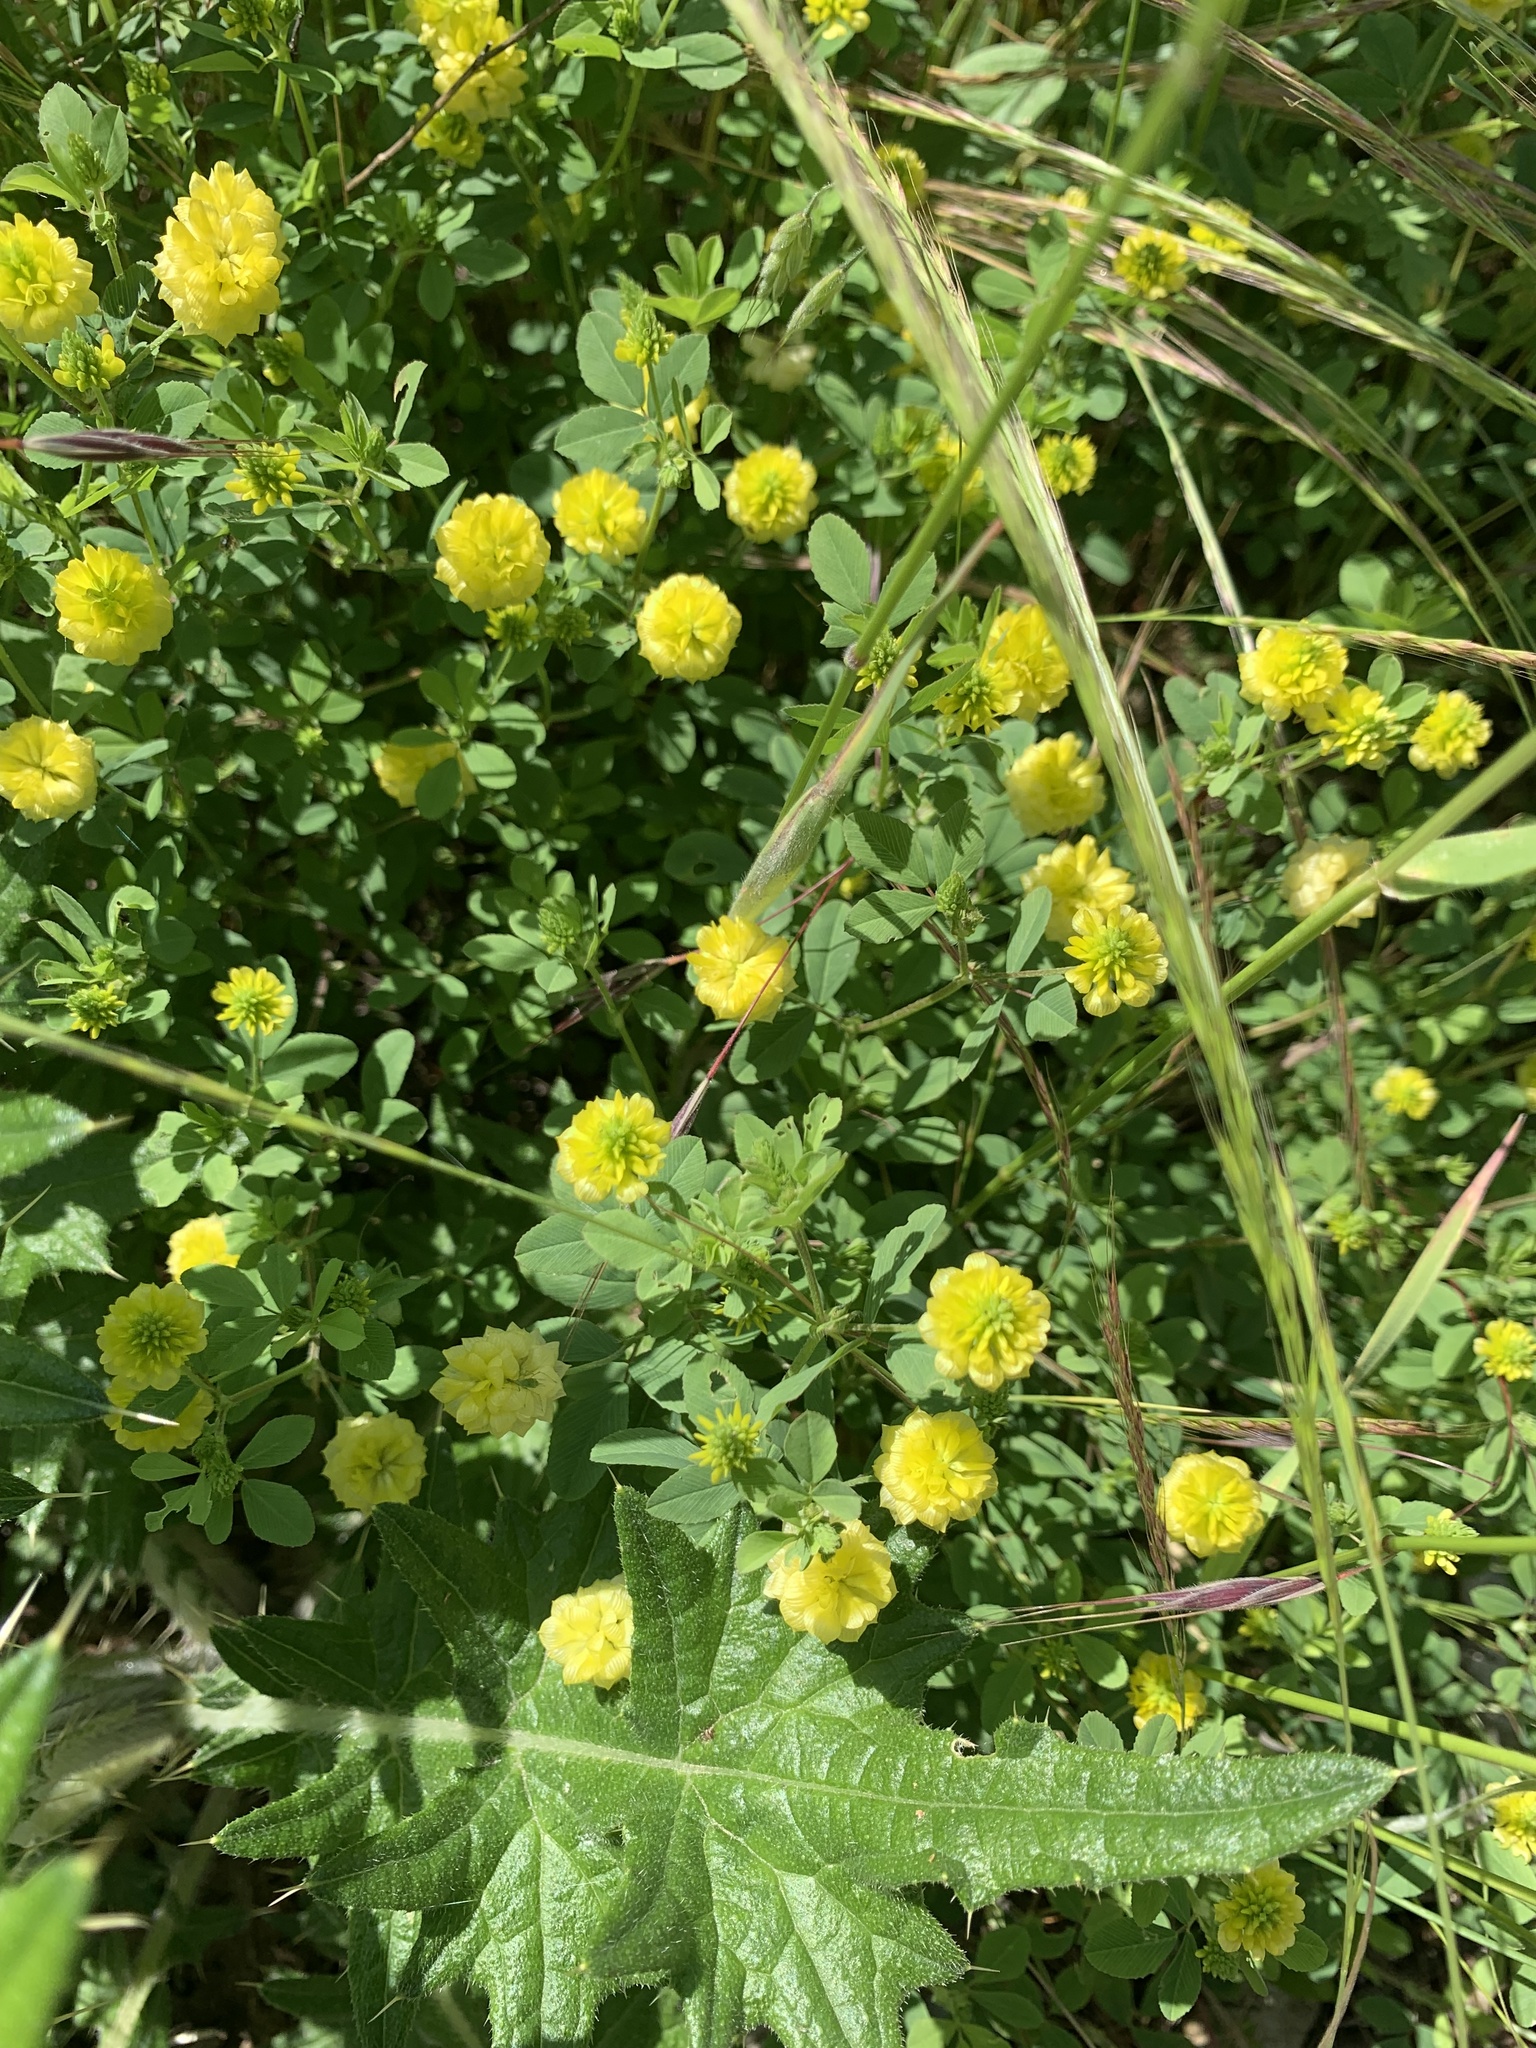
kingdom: Plantae
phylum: Tracheophyta
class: Magnoliopsida
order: Fabales
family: Fabaceae
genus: Trifolium
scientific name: Trifolium campestre
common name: Field clover
